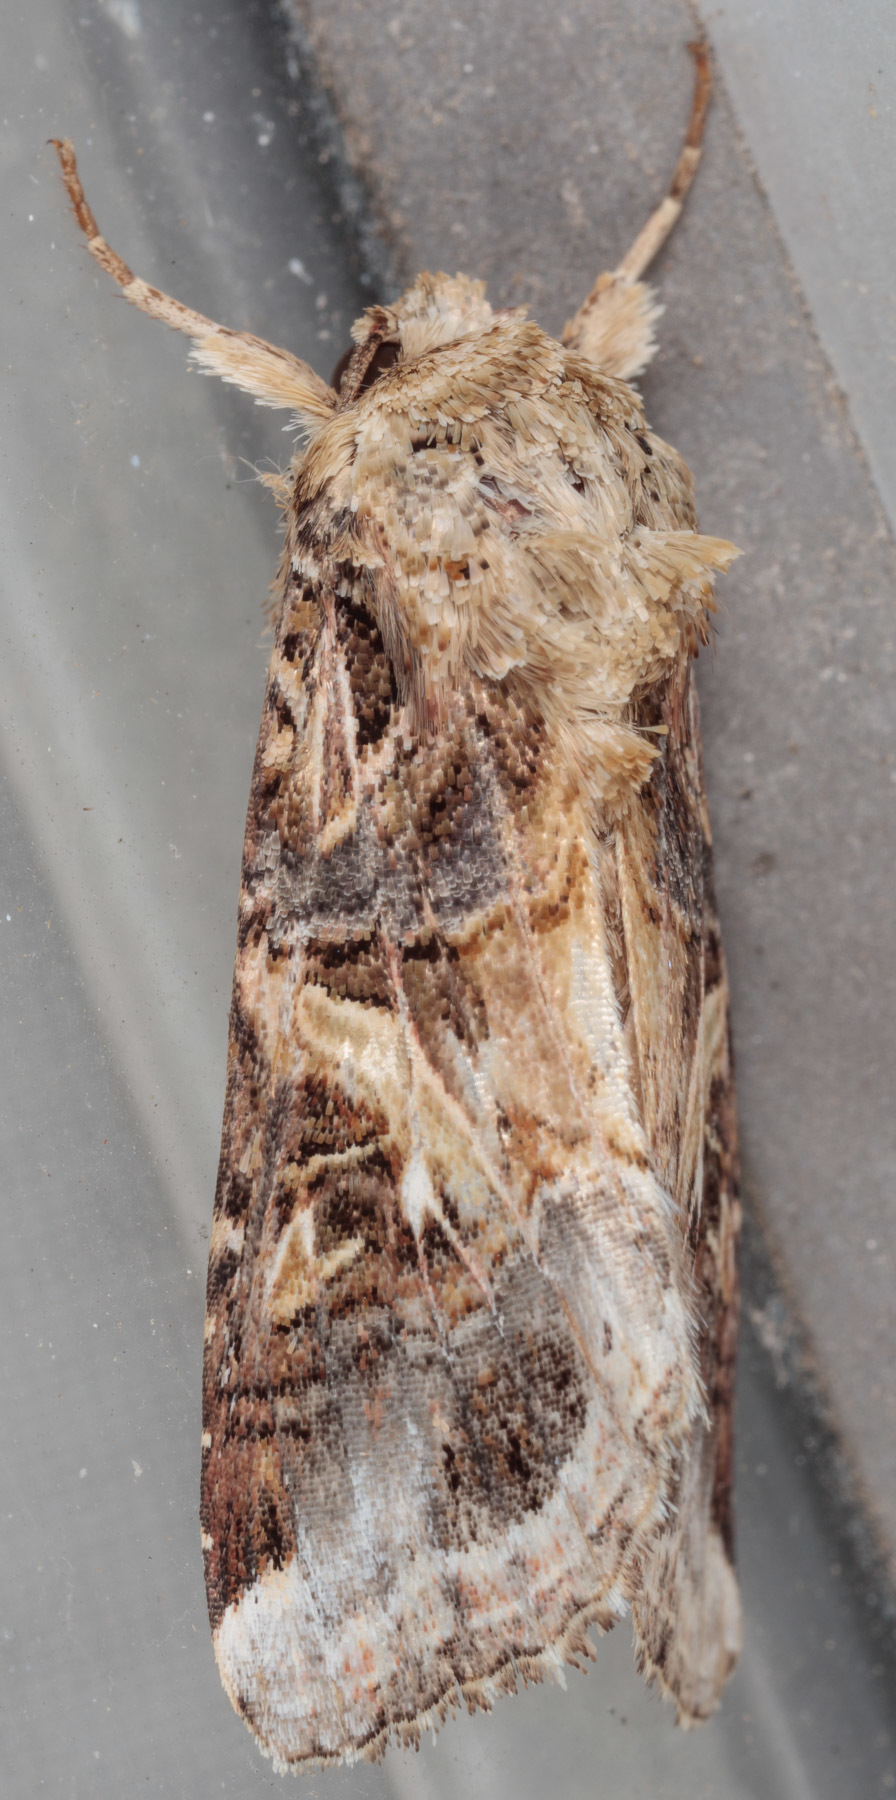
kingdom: Animalia
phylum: Arthropoda
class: Insecta
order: Lepidoptera
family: Noctuidae
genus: Spodoptera
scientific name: Spodoptera ornithogalli
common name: Yellow-striped armyworm
